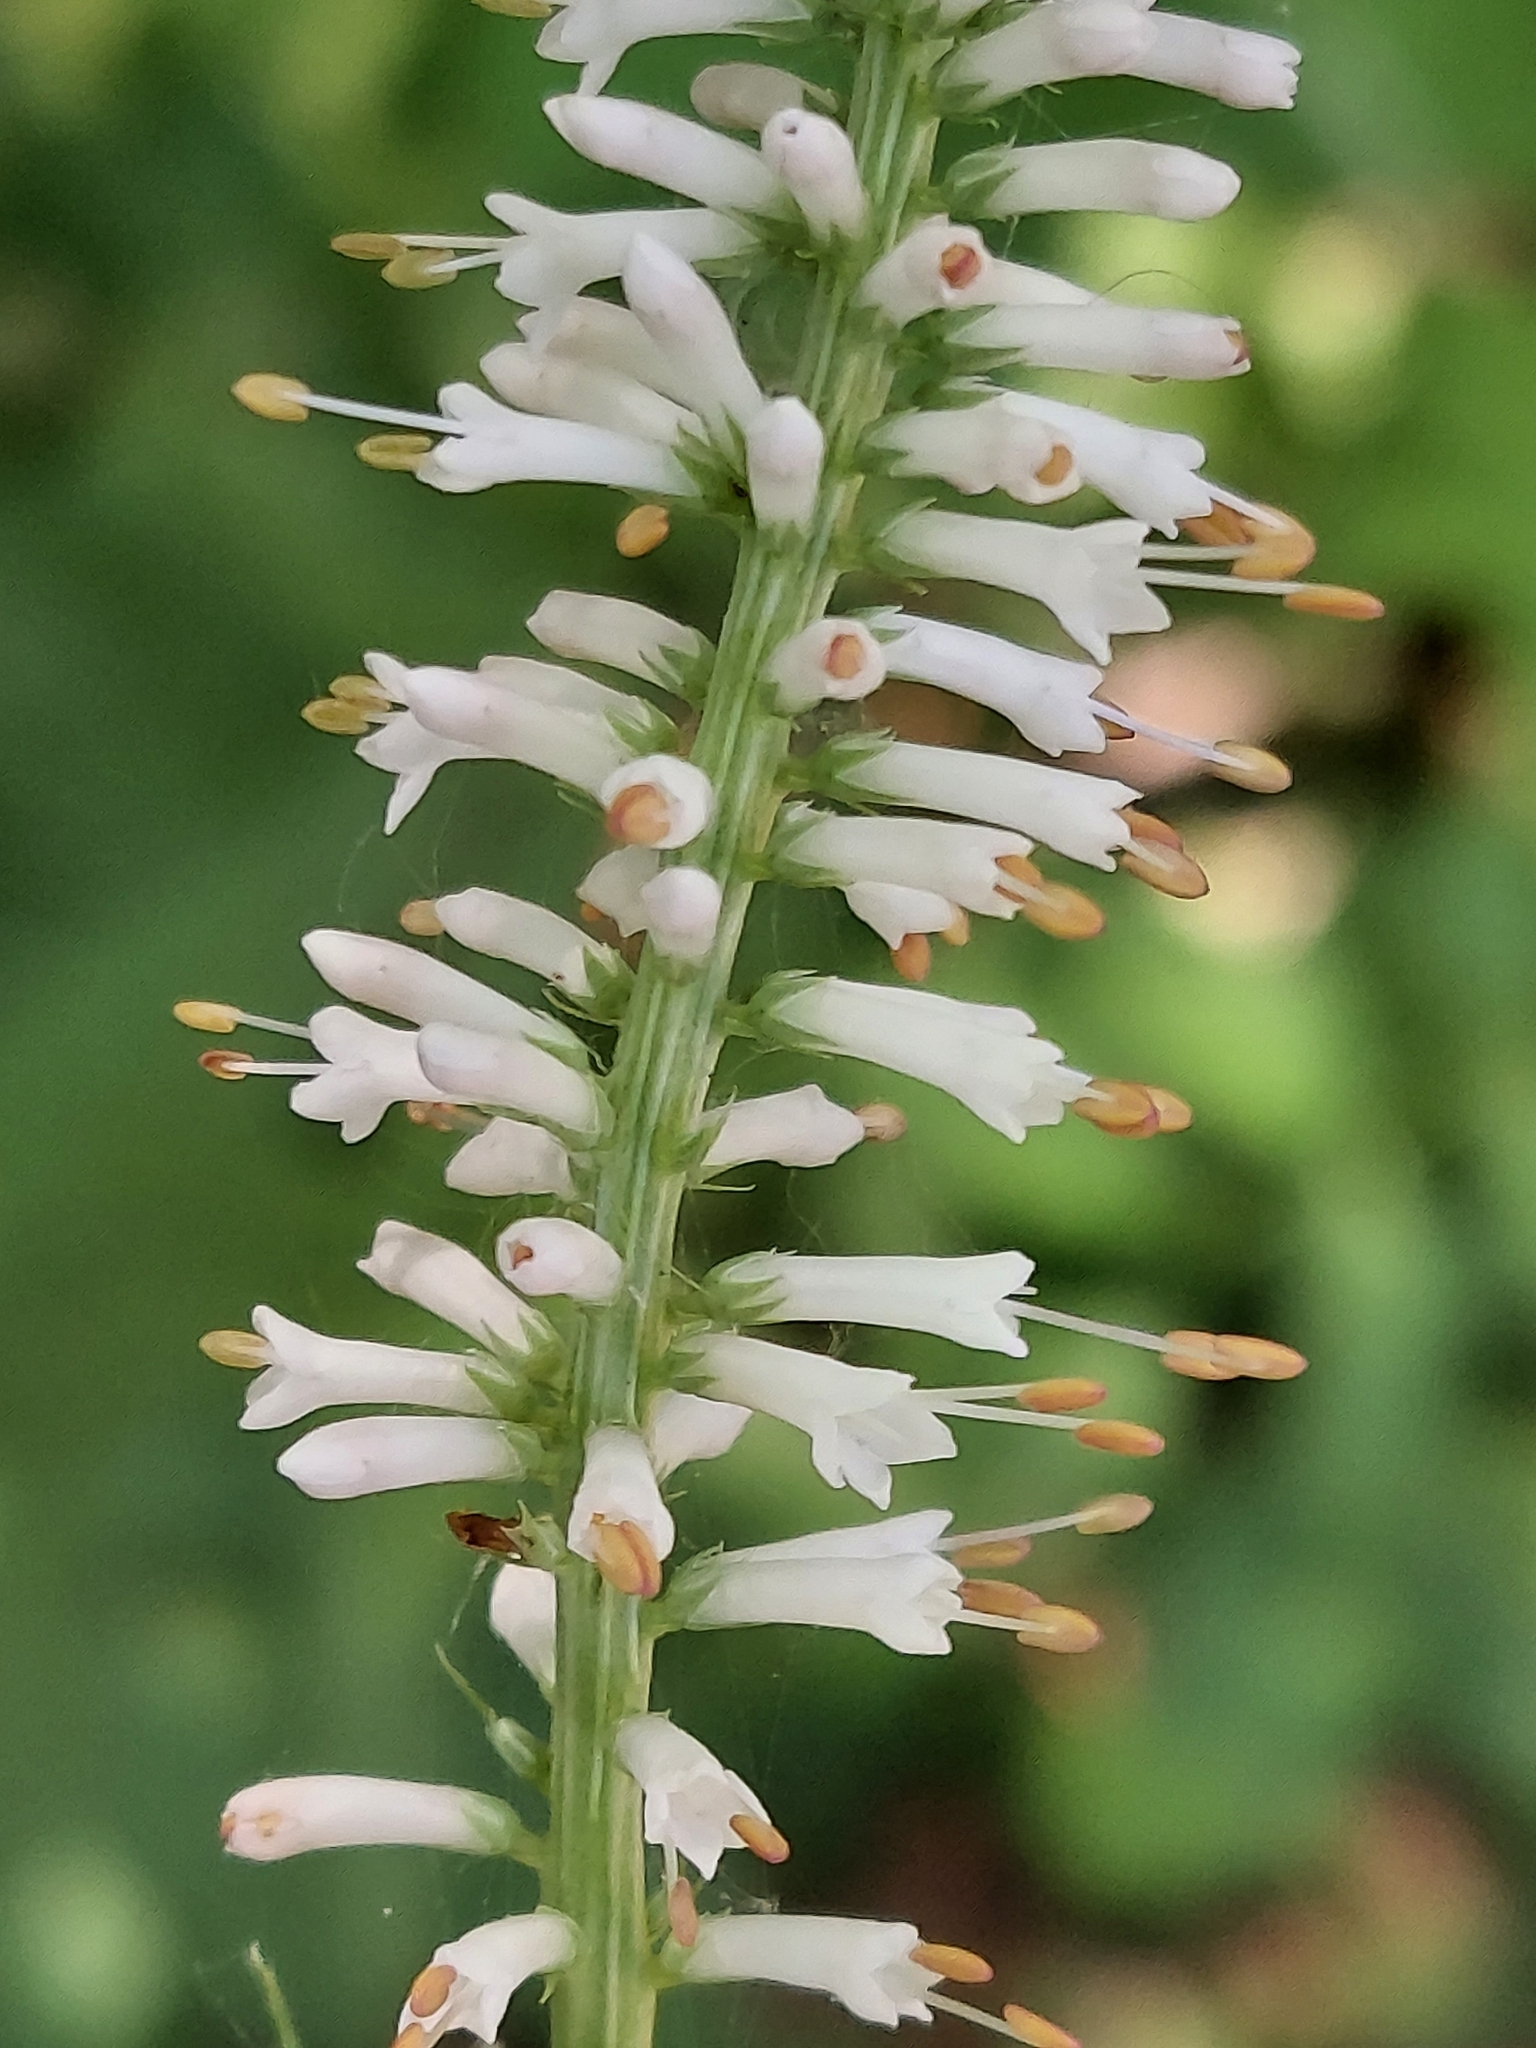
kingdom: Plantae
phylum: Tracheophyta
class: Magnoliopsida
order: Lamiales
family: Plantaginaceae
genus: Veronicastrum
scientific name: Veronicastrum virginicum
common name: Blackroot
